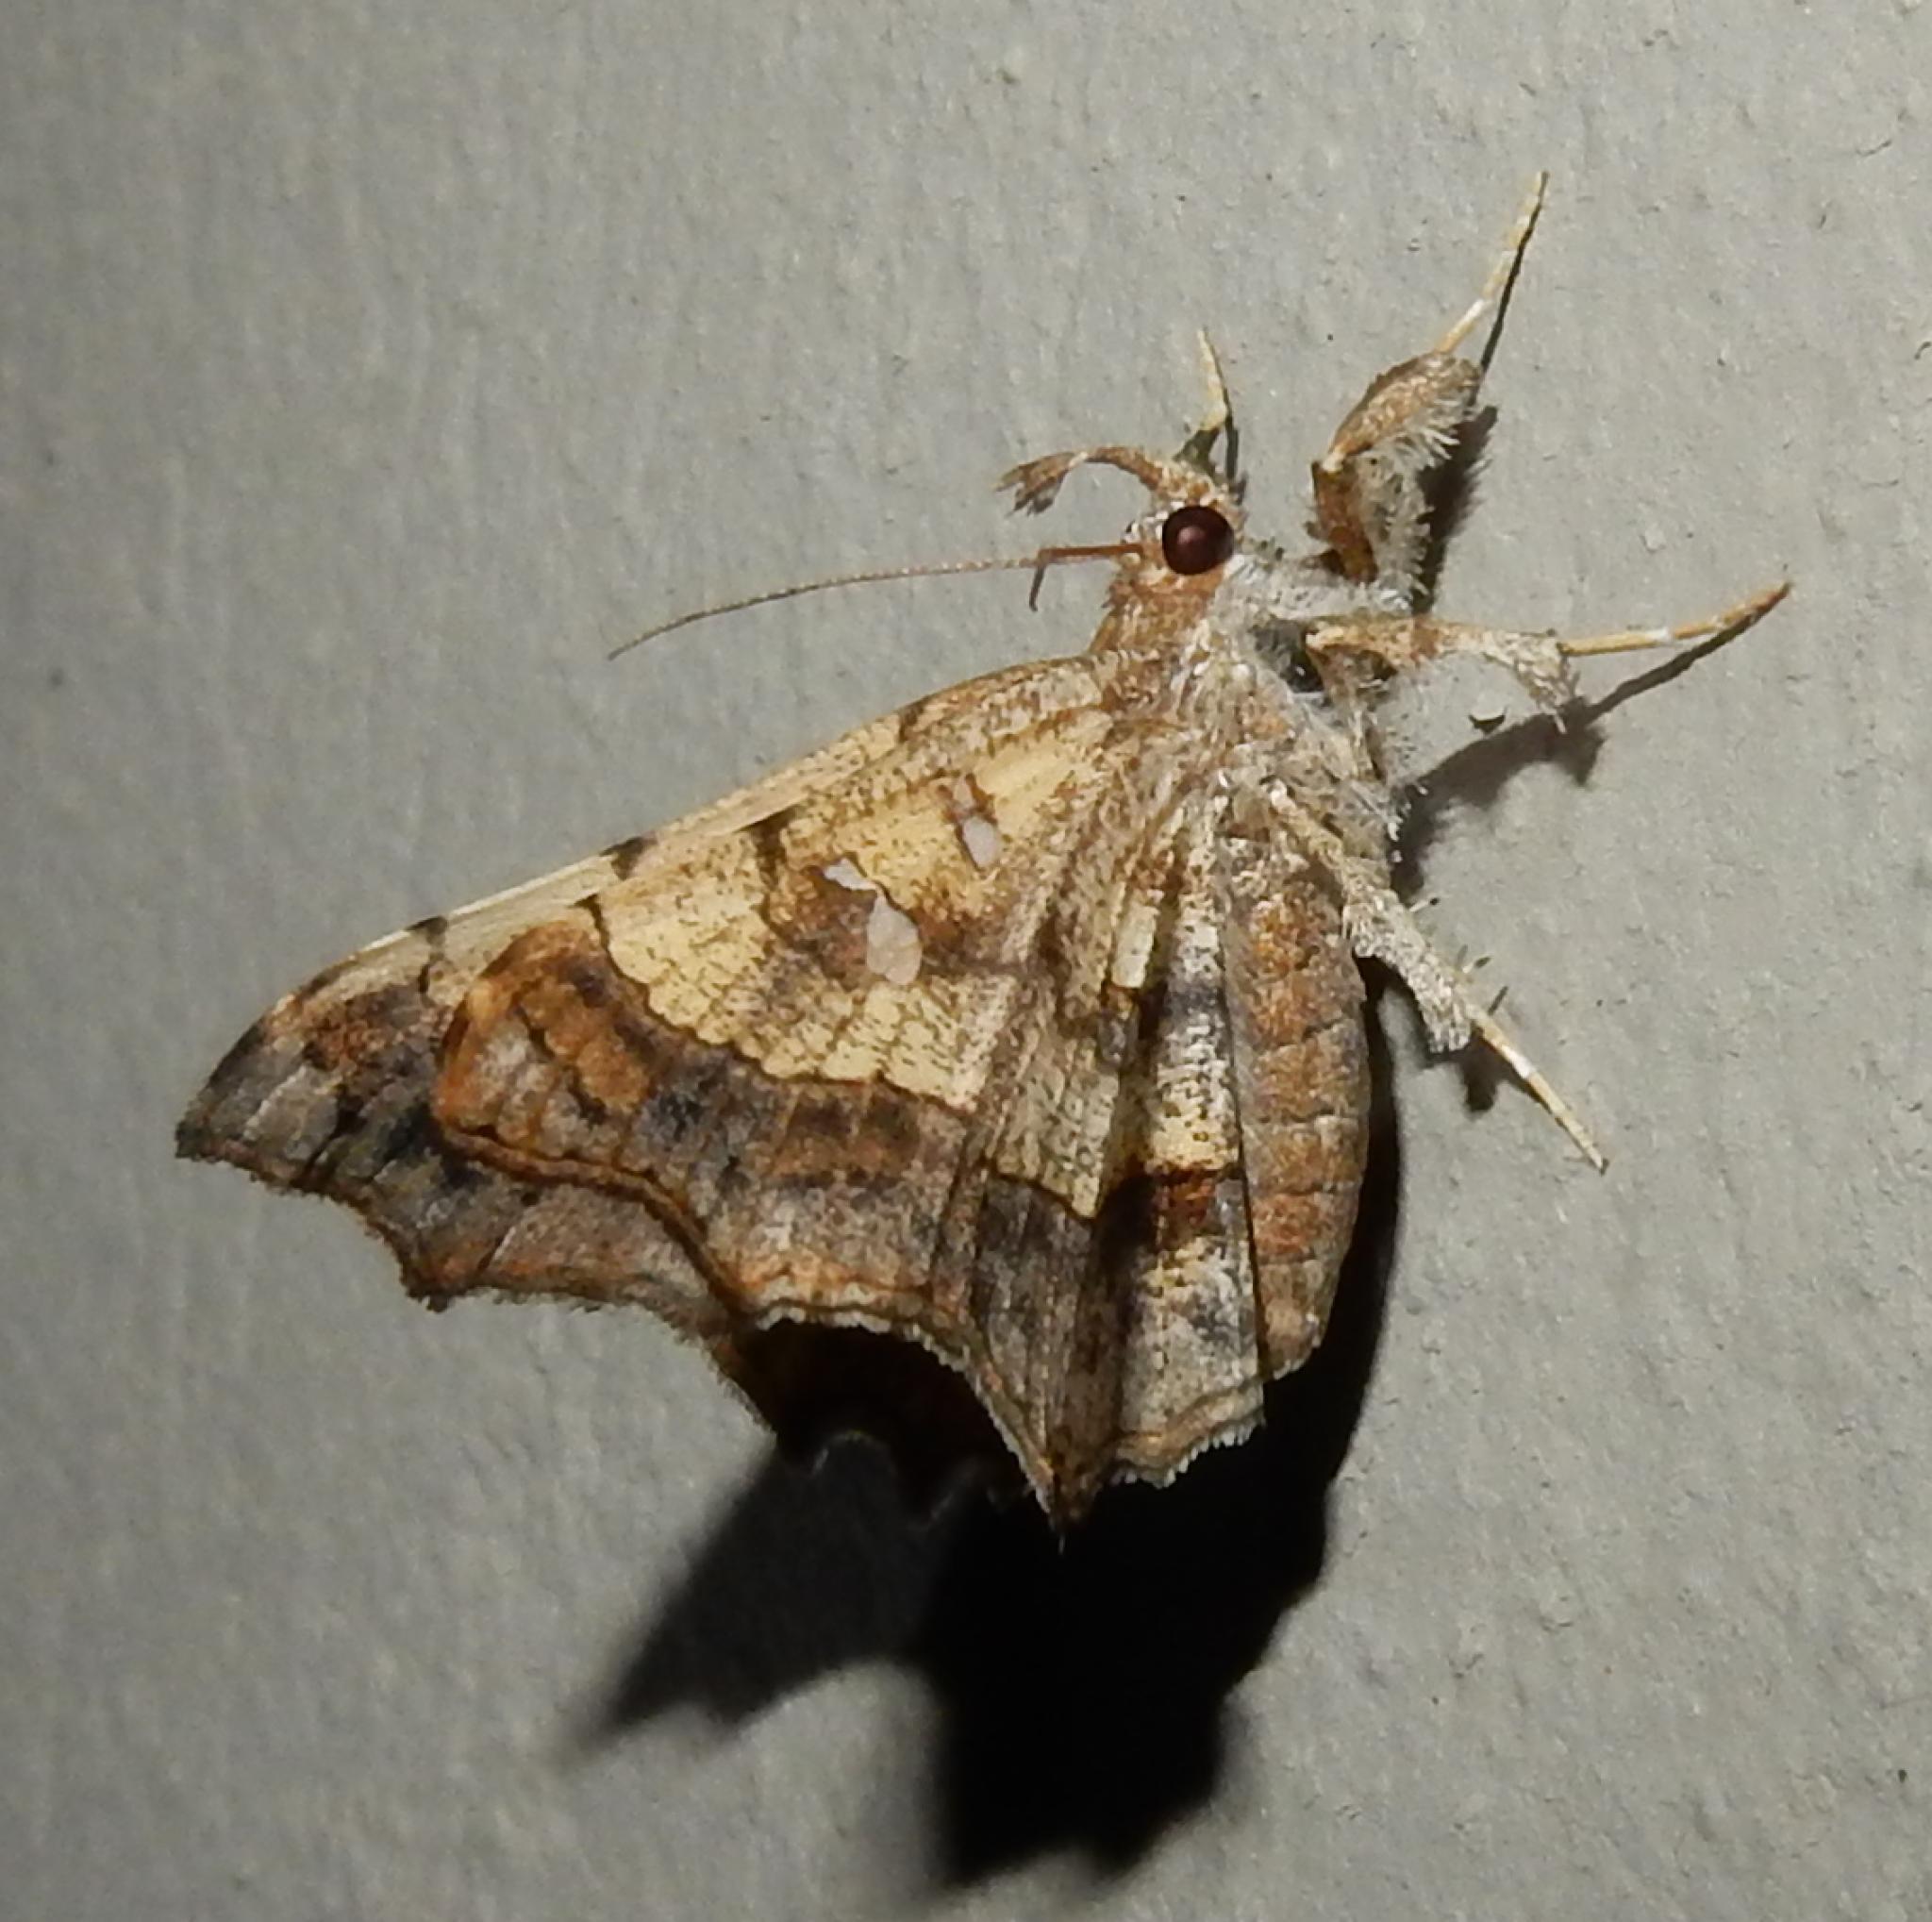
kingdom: Animalia
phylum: Arthropoda
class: Insecta
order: Lepidoptera
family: Erebidae
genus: Egnasia
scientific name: Egnasia vicaria
